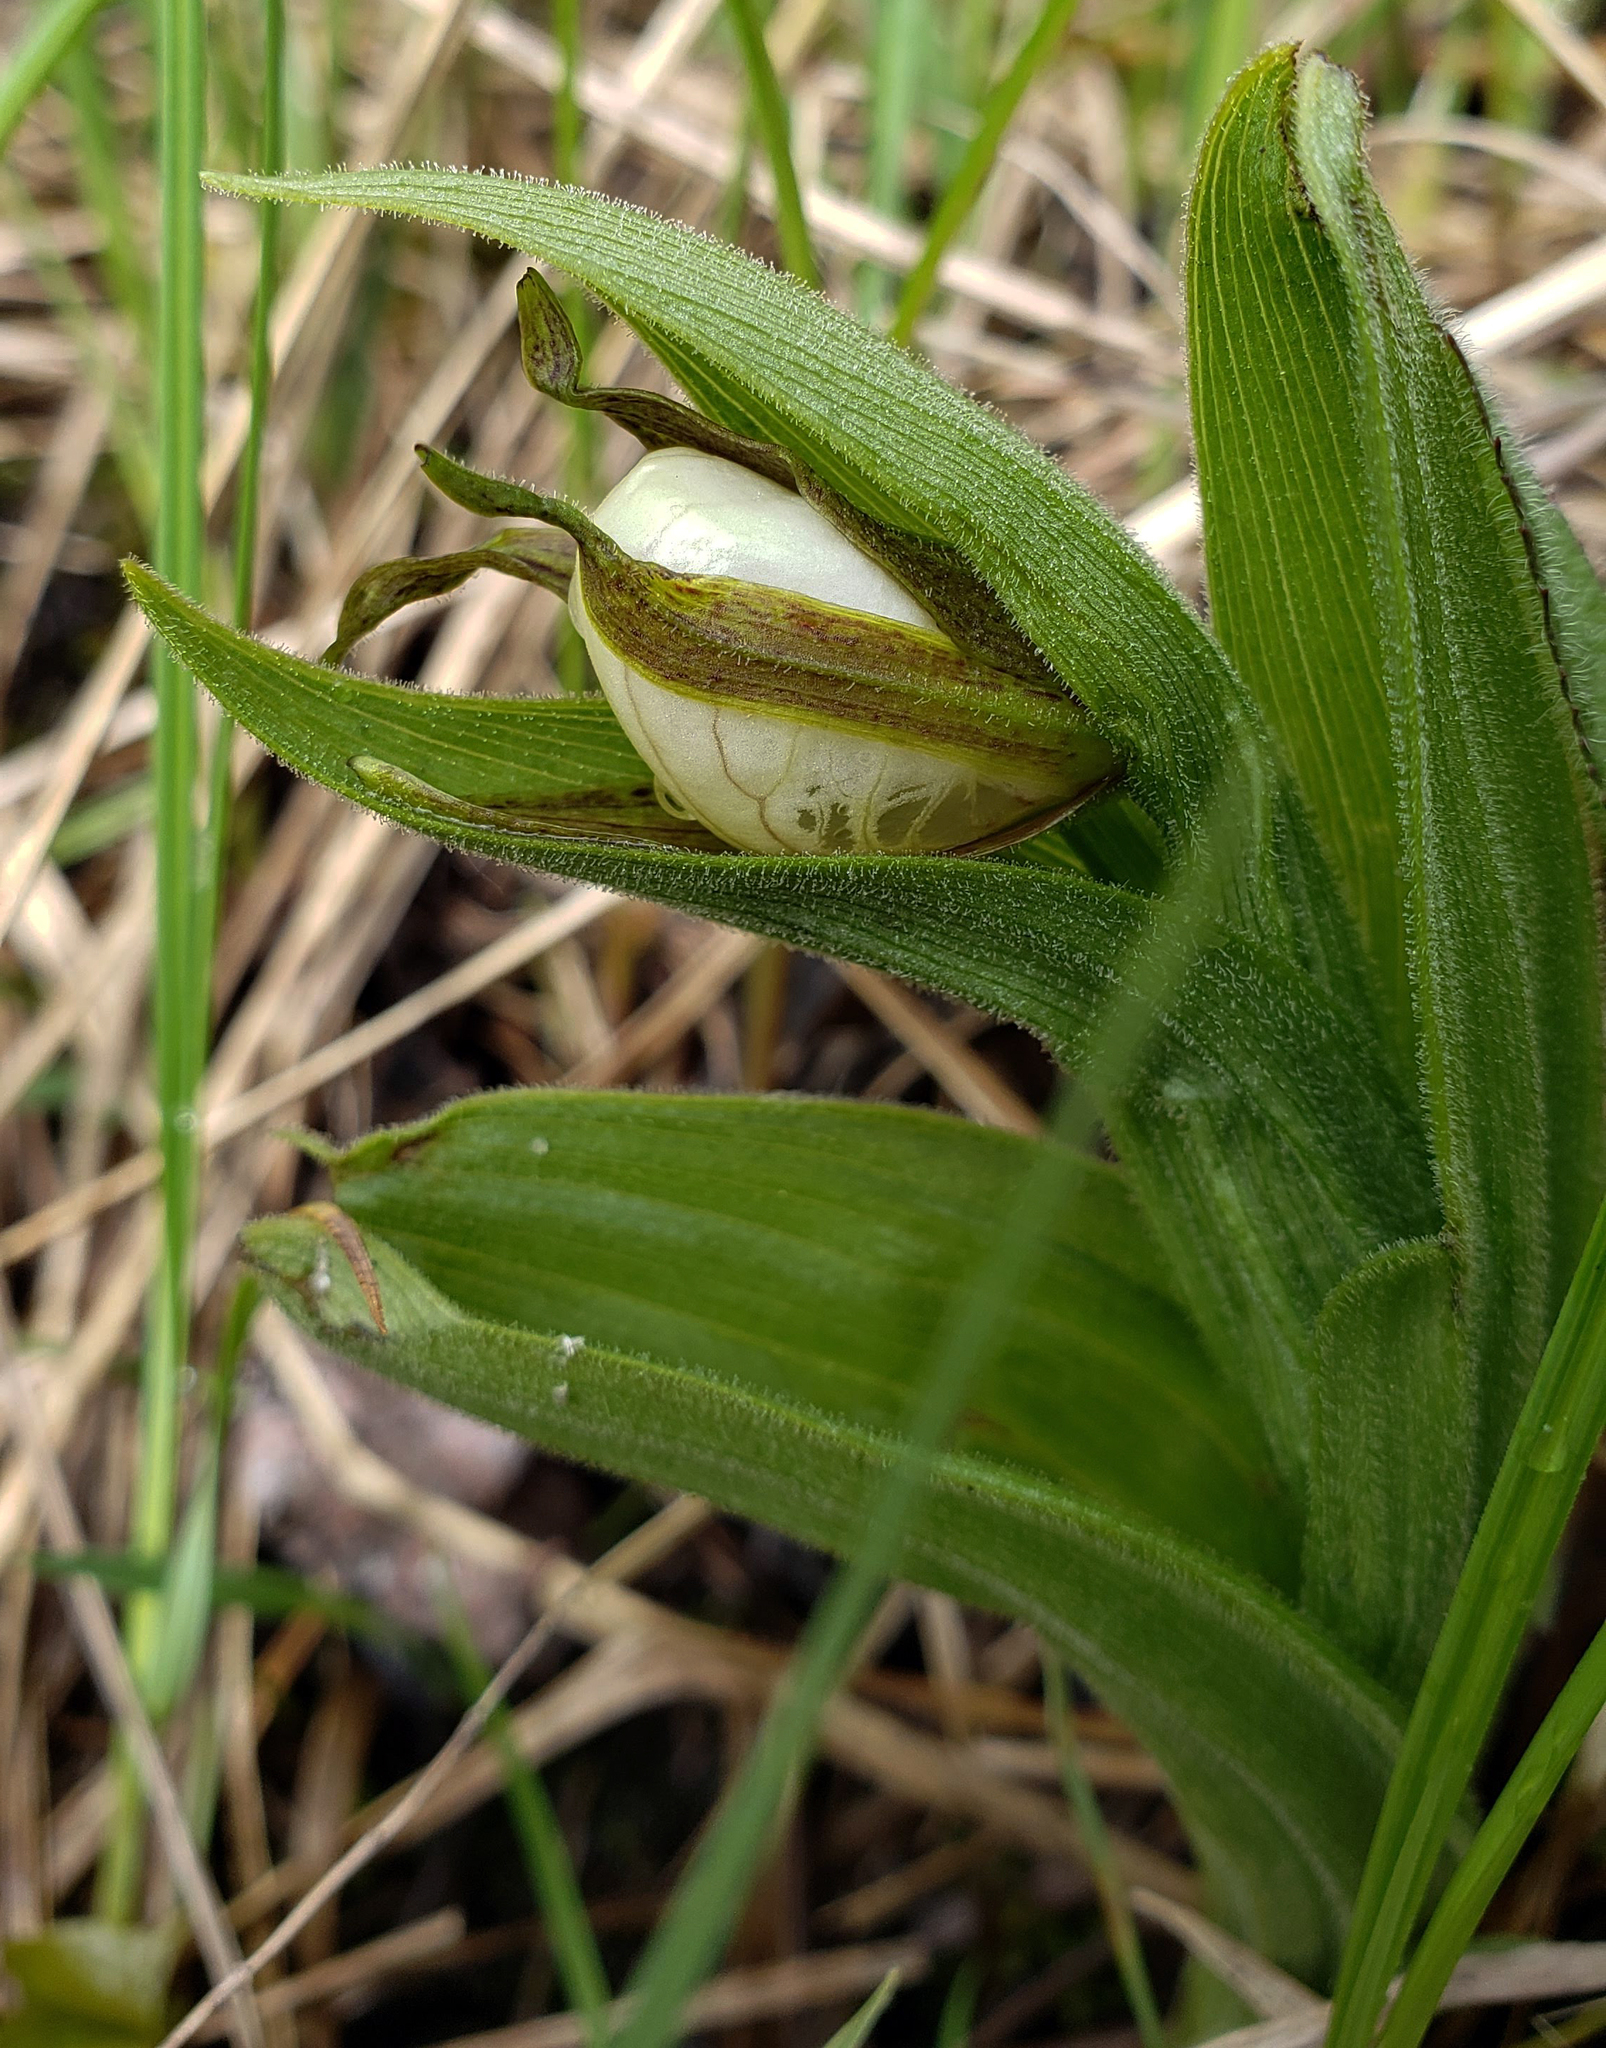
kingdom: Plantae
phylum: Tracheophyta
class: Liliopsida
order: Asparagales
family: Orchidaceae
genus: Cypripedium
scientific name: Cypripedium candidum
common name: White lady's-slipper
